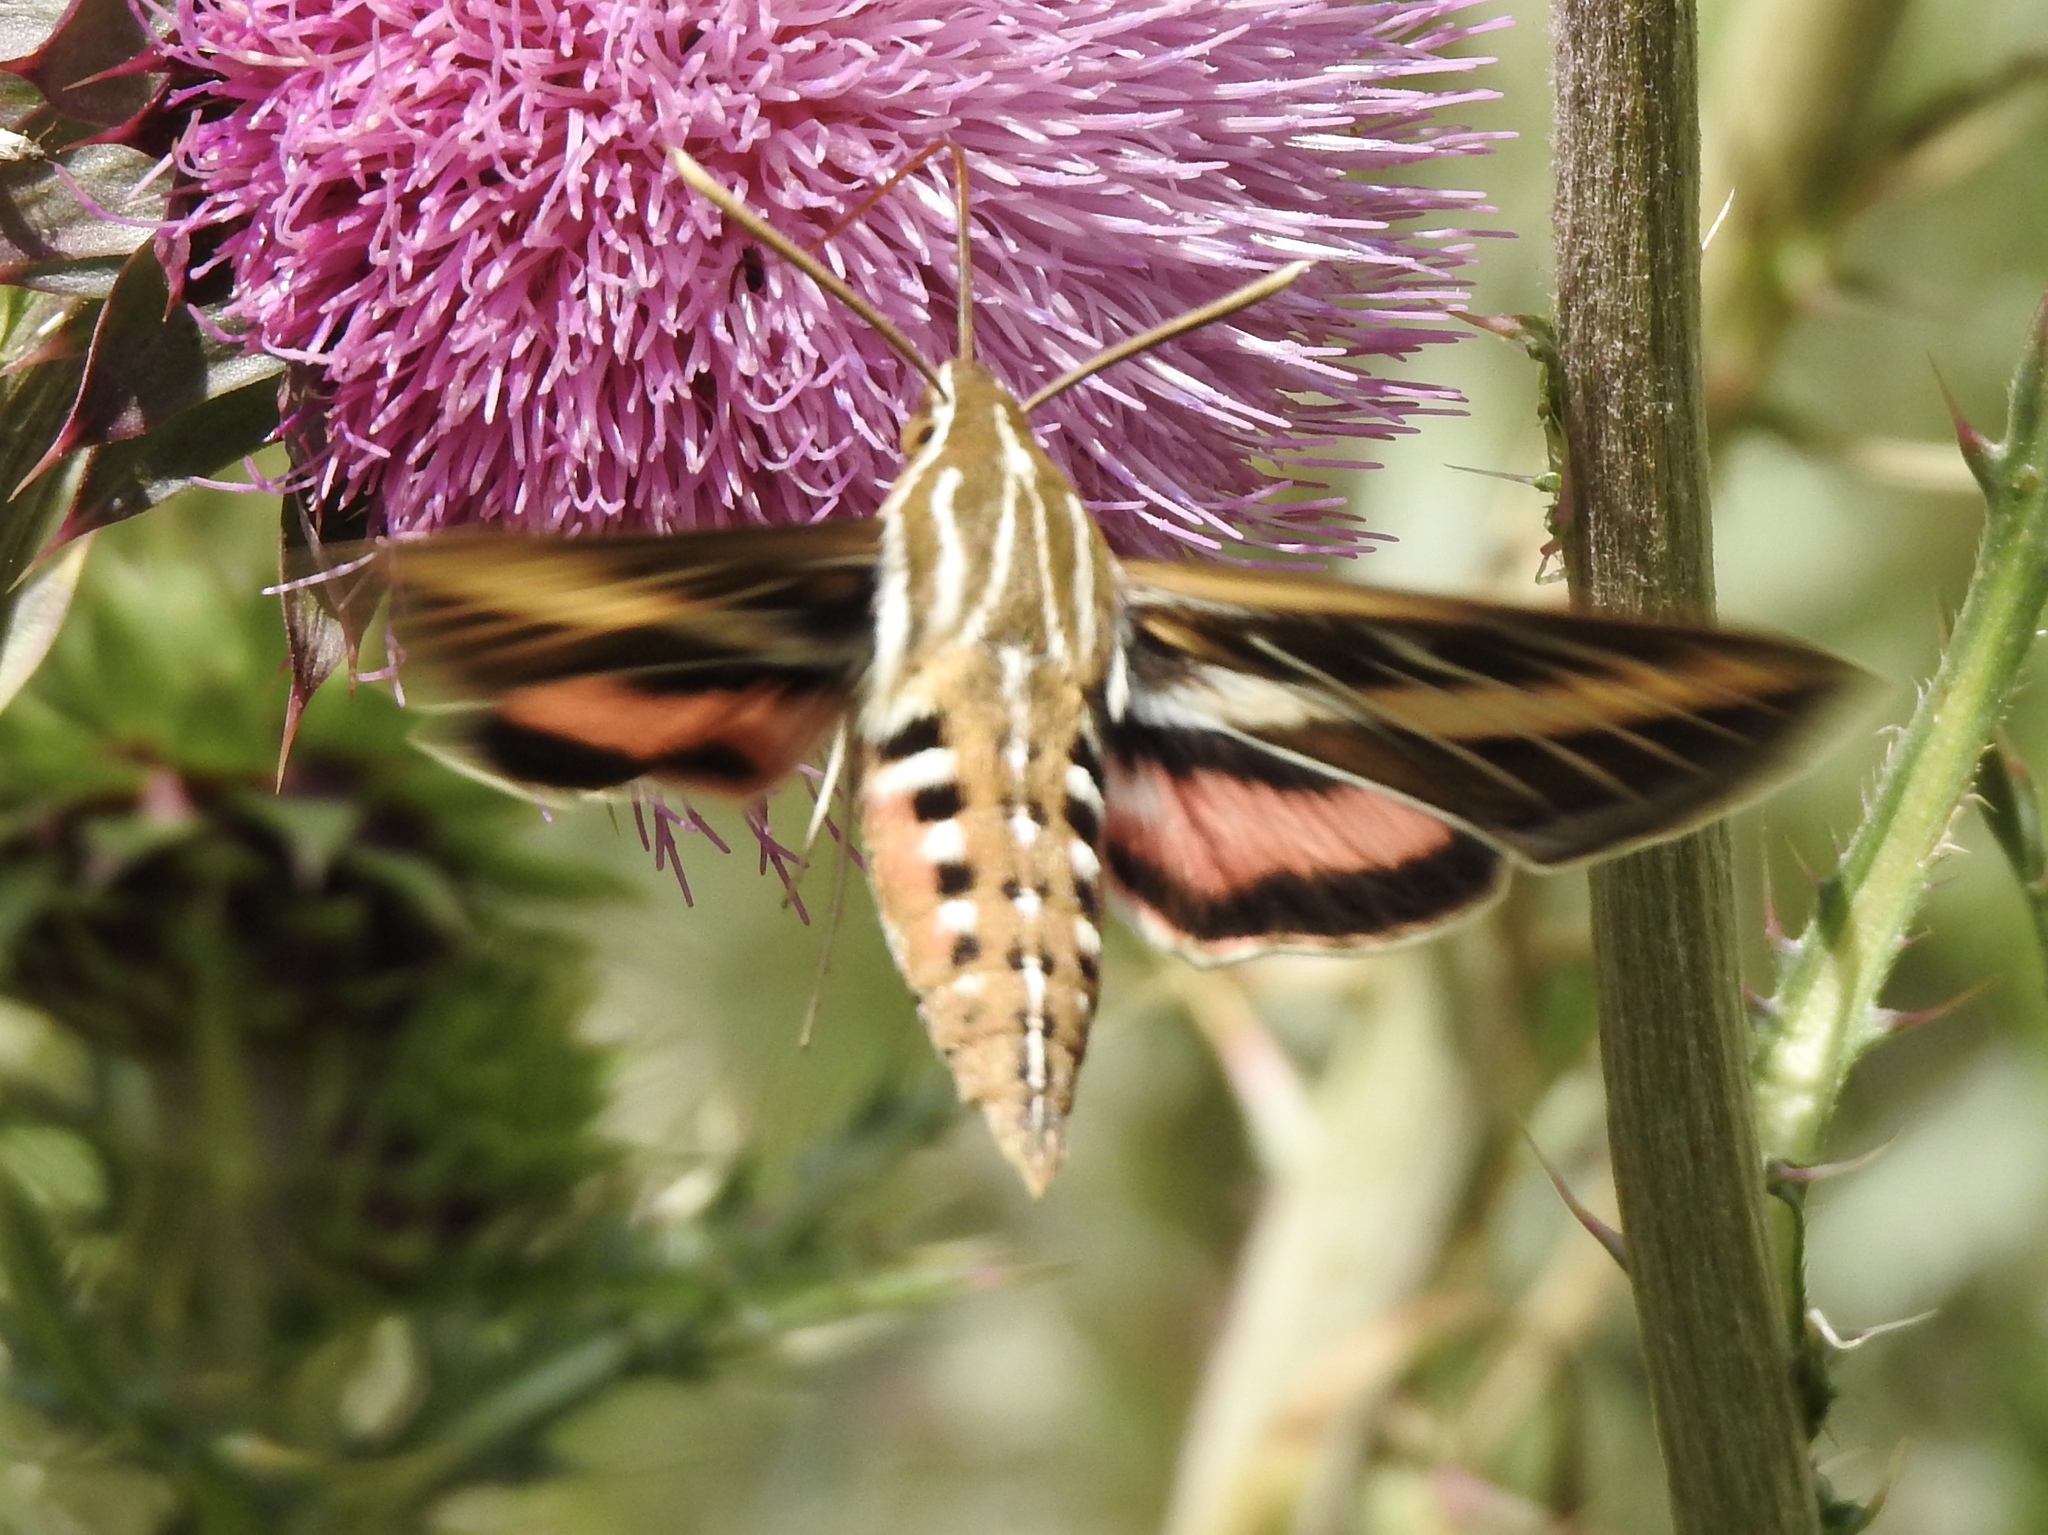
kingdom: Animalia
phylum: Arthropoda
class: Insecta
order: Lepidoptera
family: Sphingidae
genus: Hyles
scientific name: Hyles lineata
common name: White-lined sphinx
